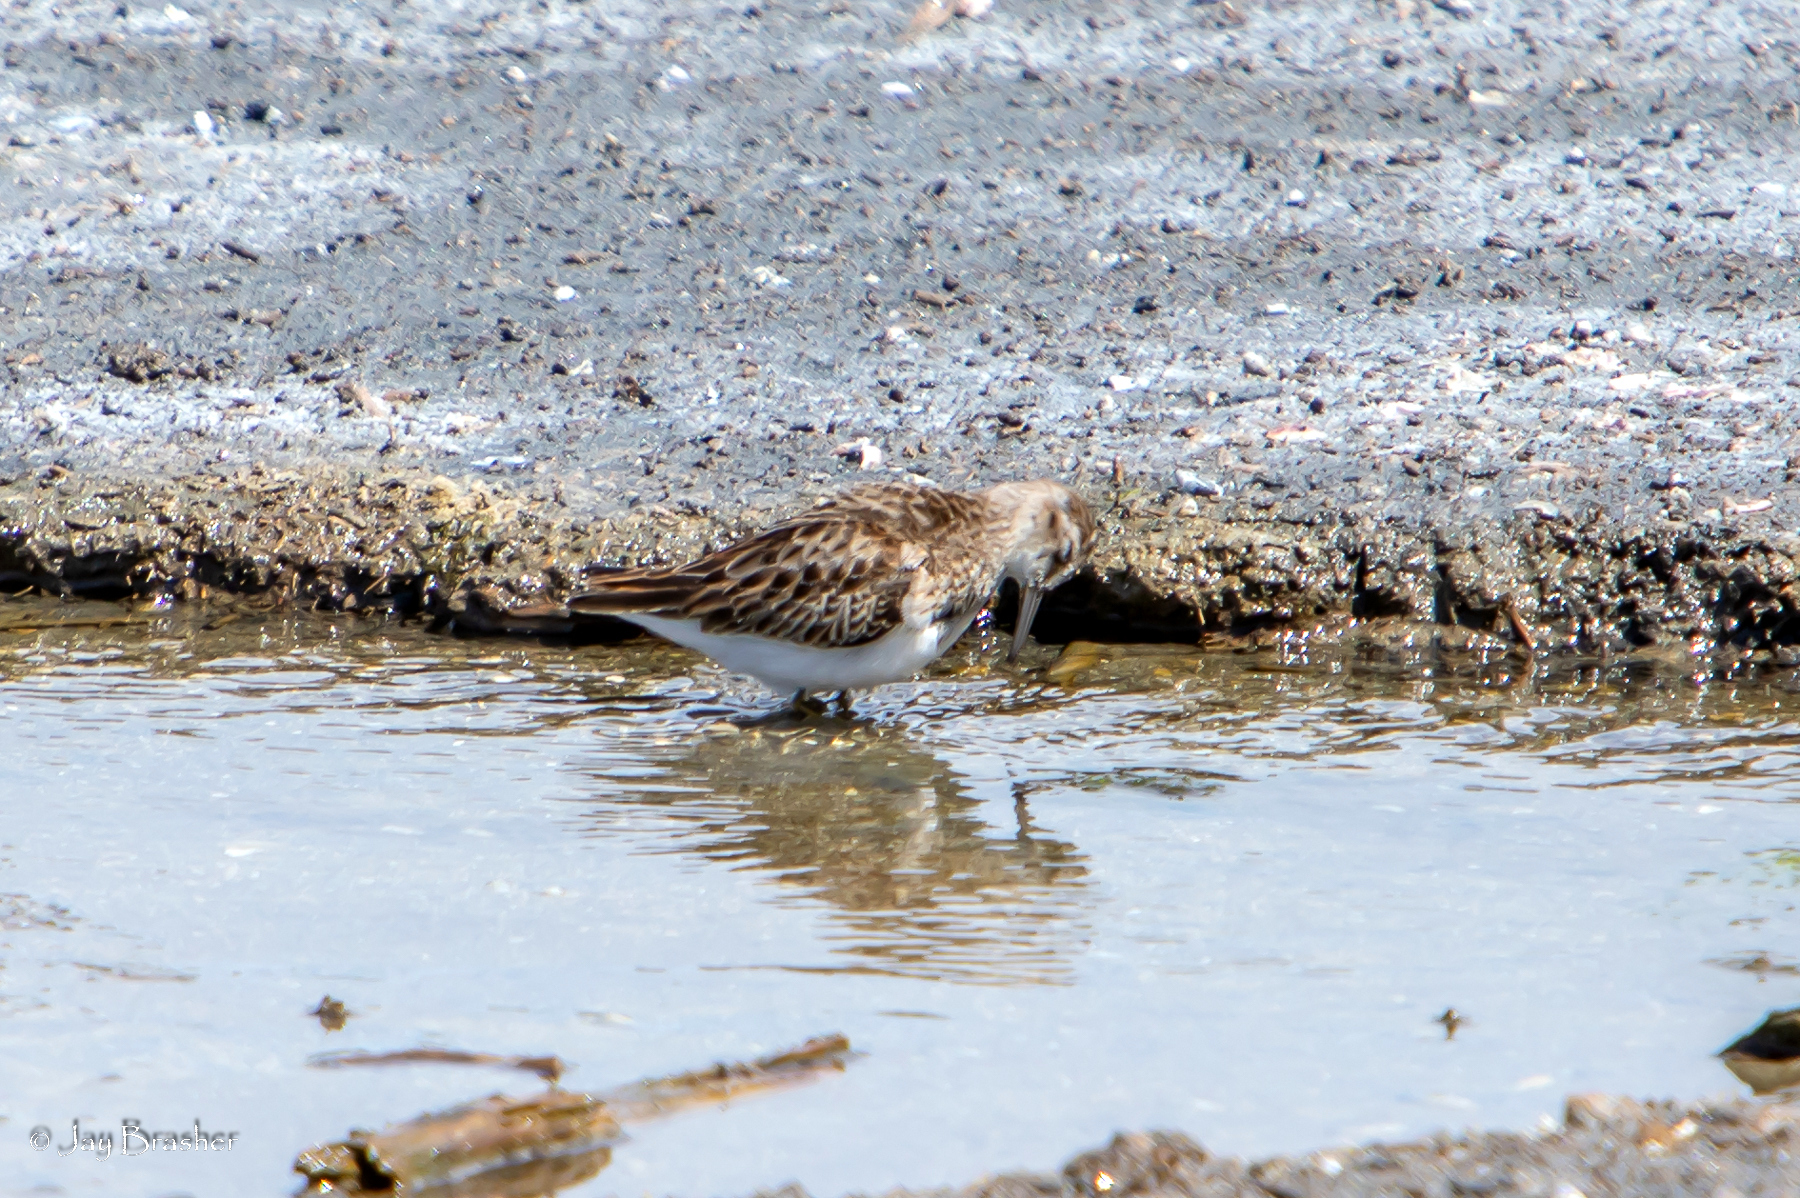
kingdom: Animalia
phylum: Chordata
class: Aves
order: Charadriiformes
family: Scolopacidae
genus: Calidris
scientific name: Calidris pusilla
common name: Semipalmated sandpiper
